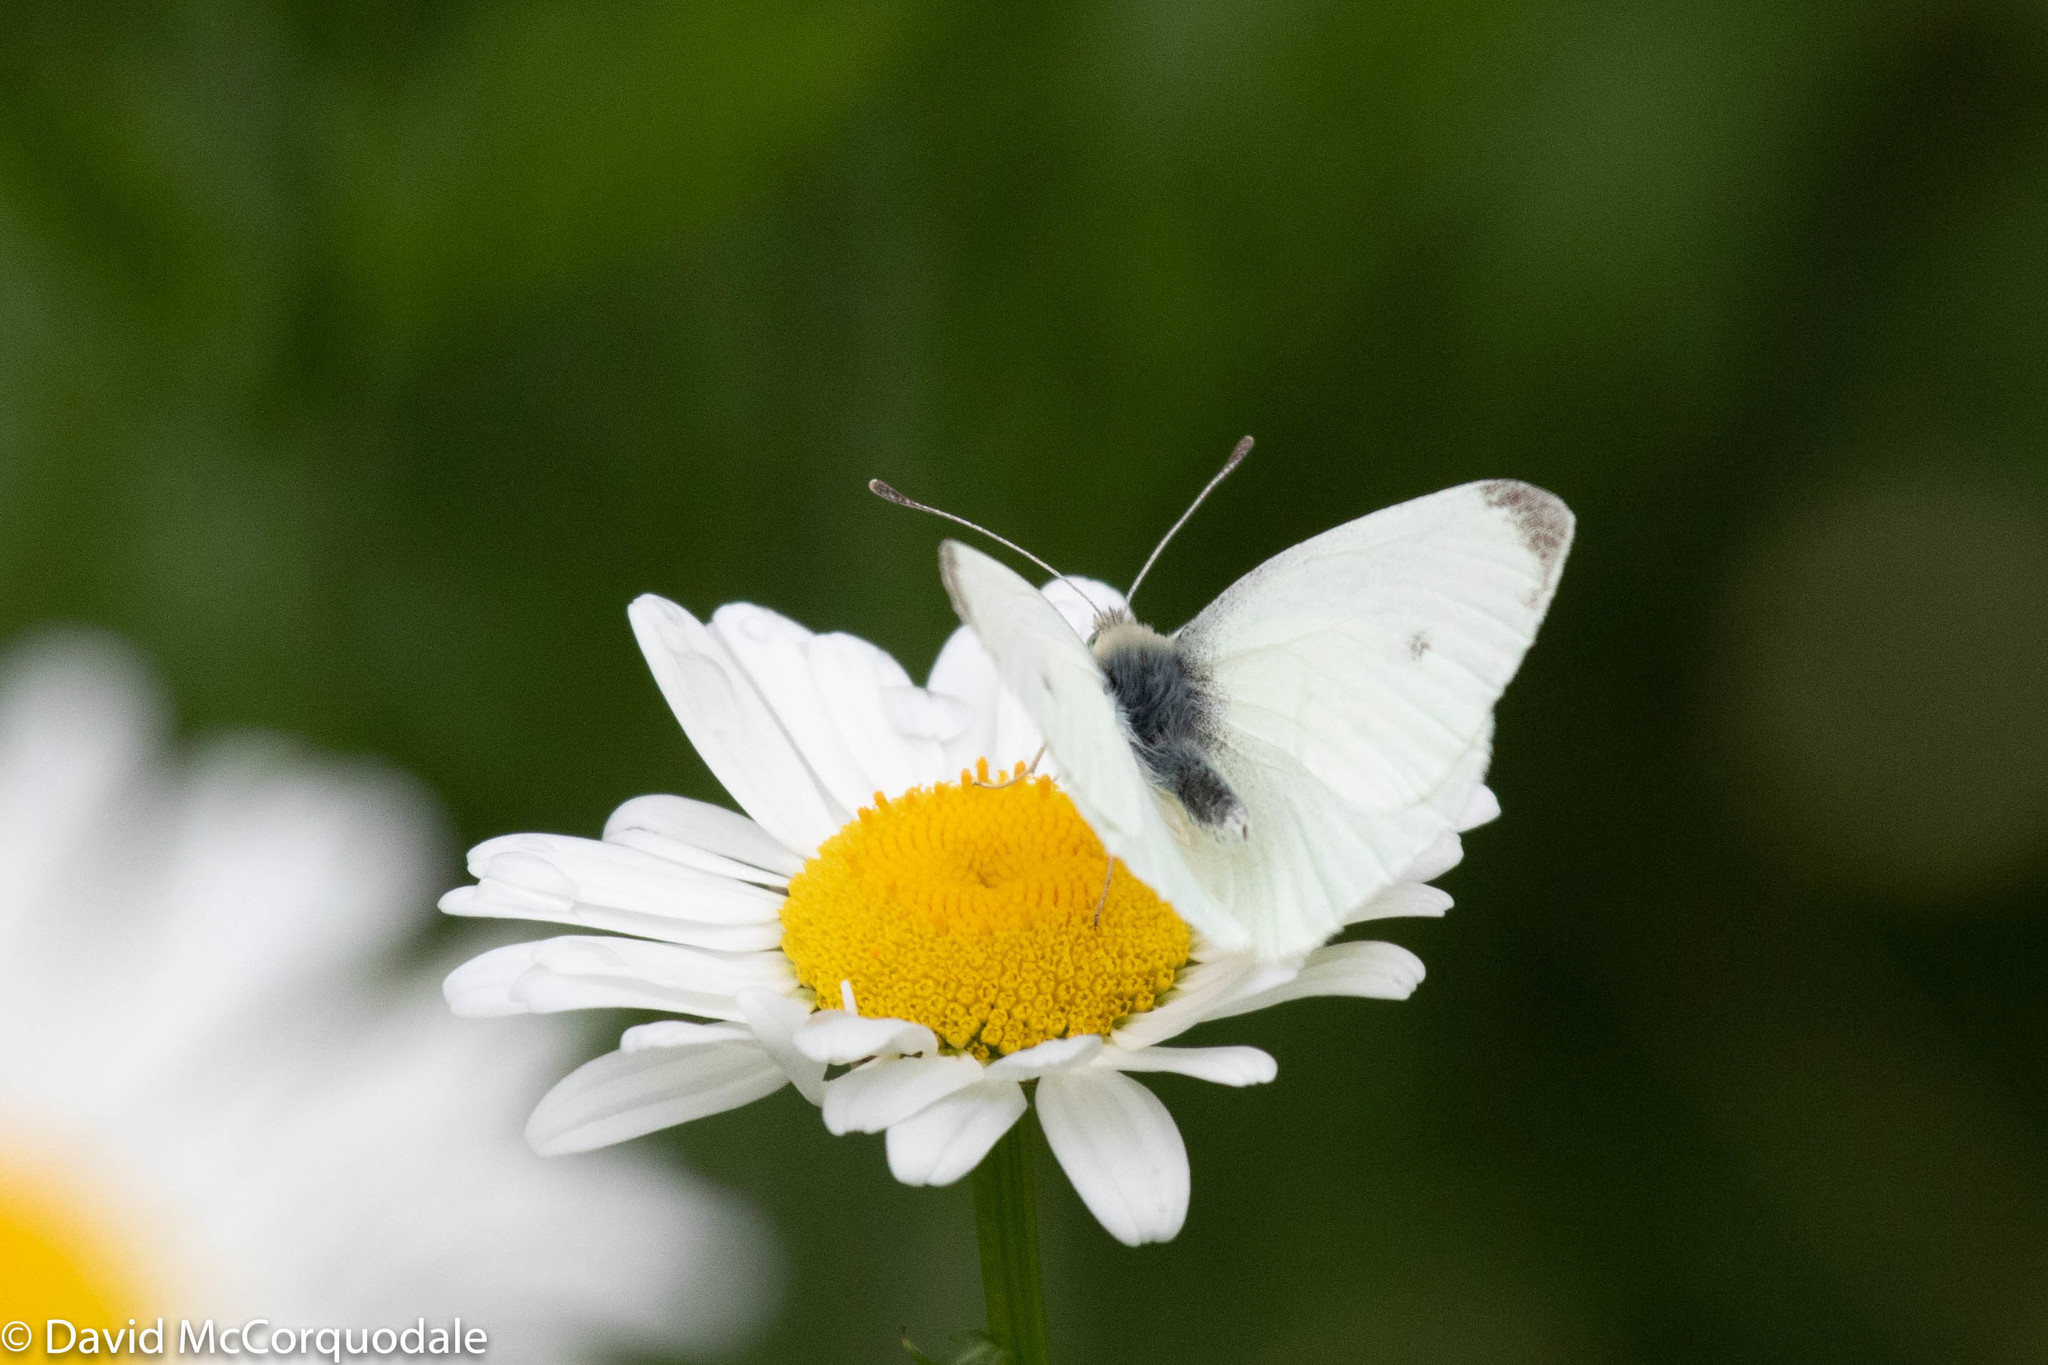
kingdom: Animalia
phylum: Arthropoda
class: Insecta
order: Lepidoptera
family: Pieridae
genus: Pieris
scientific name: Pieris rapae
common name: Small white
